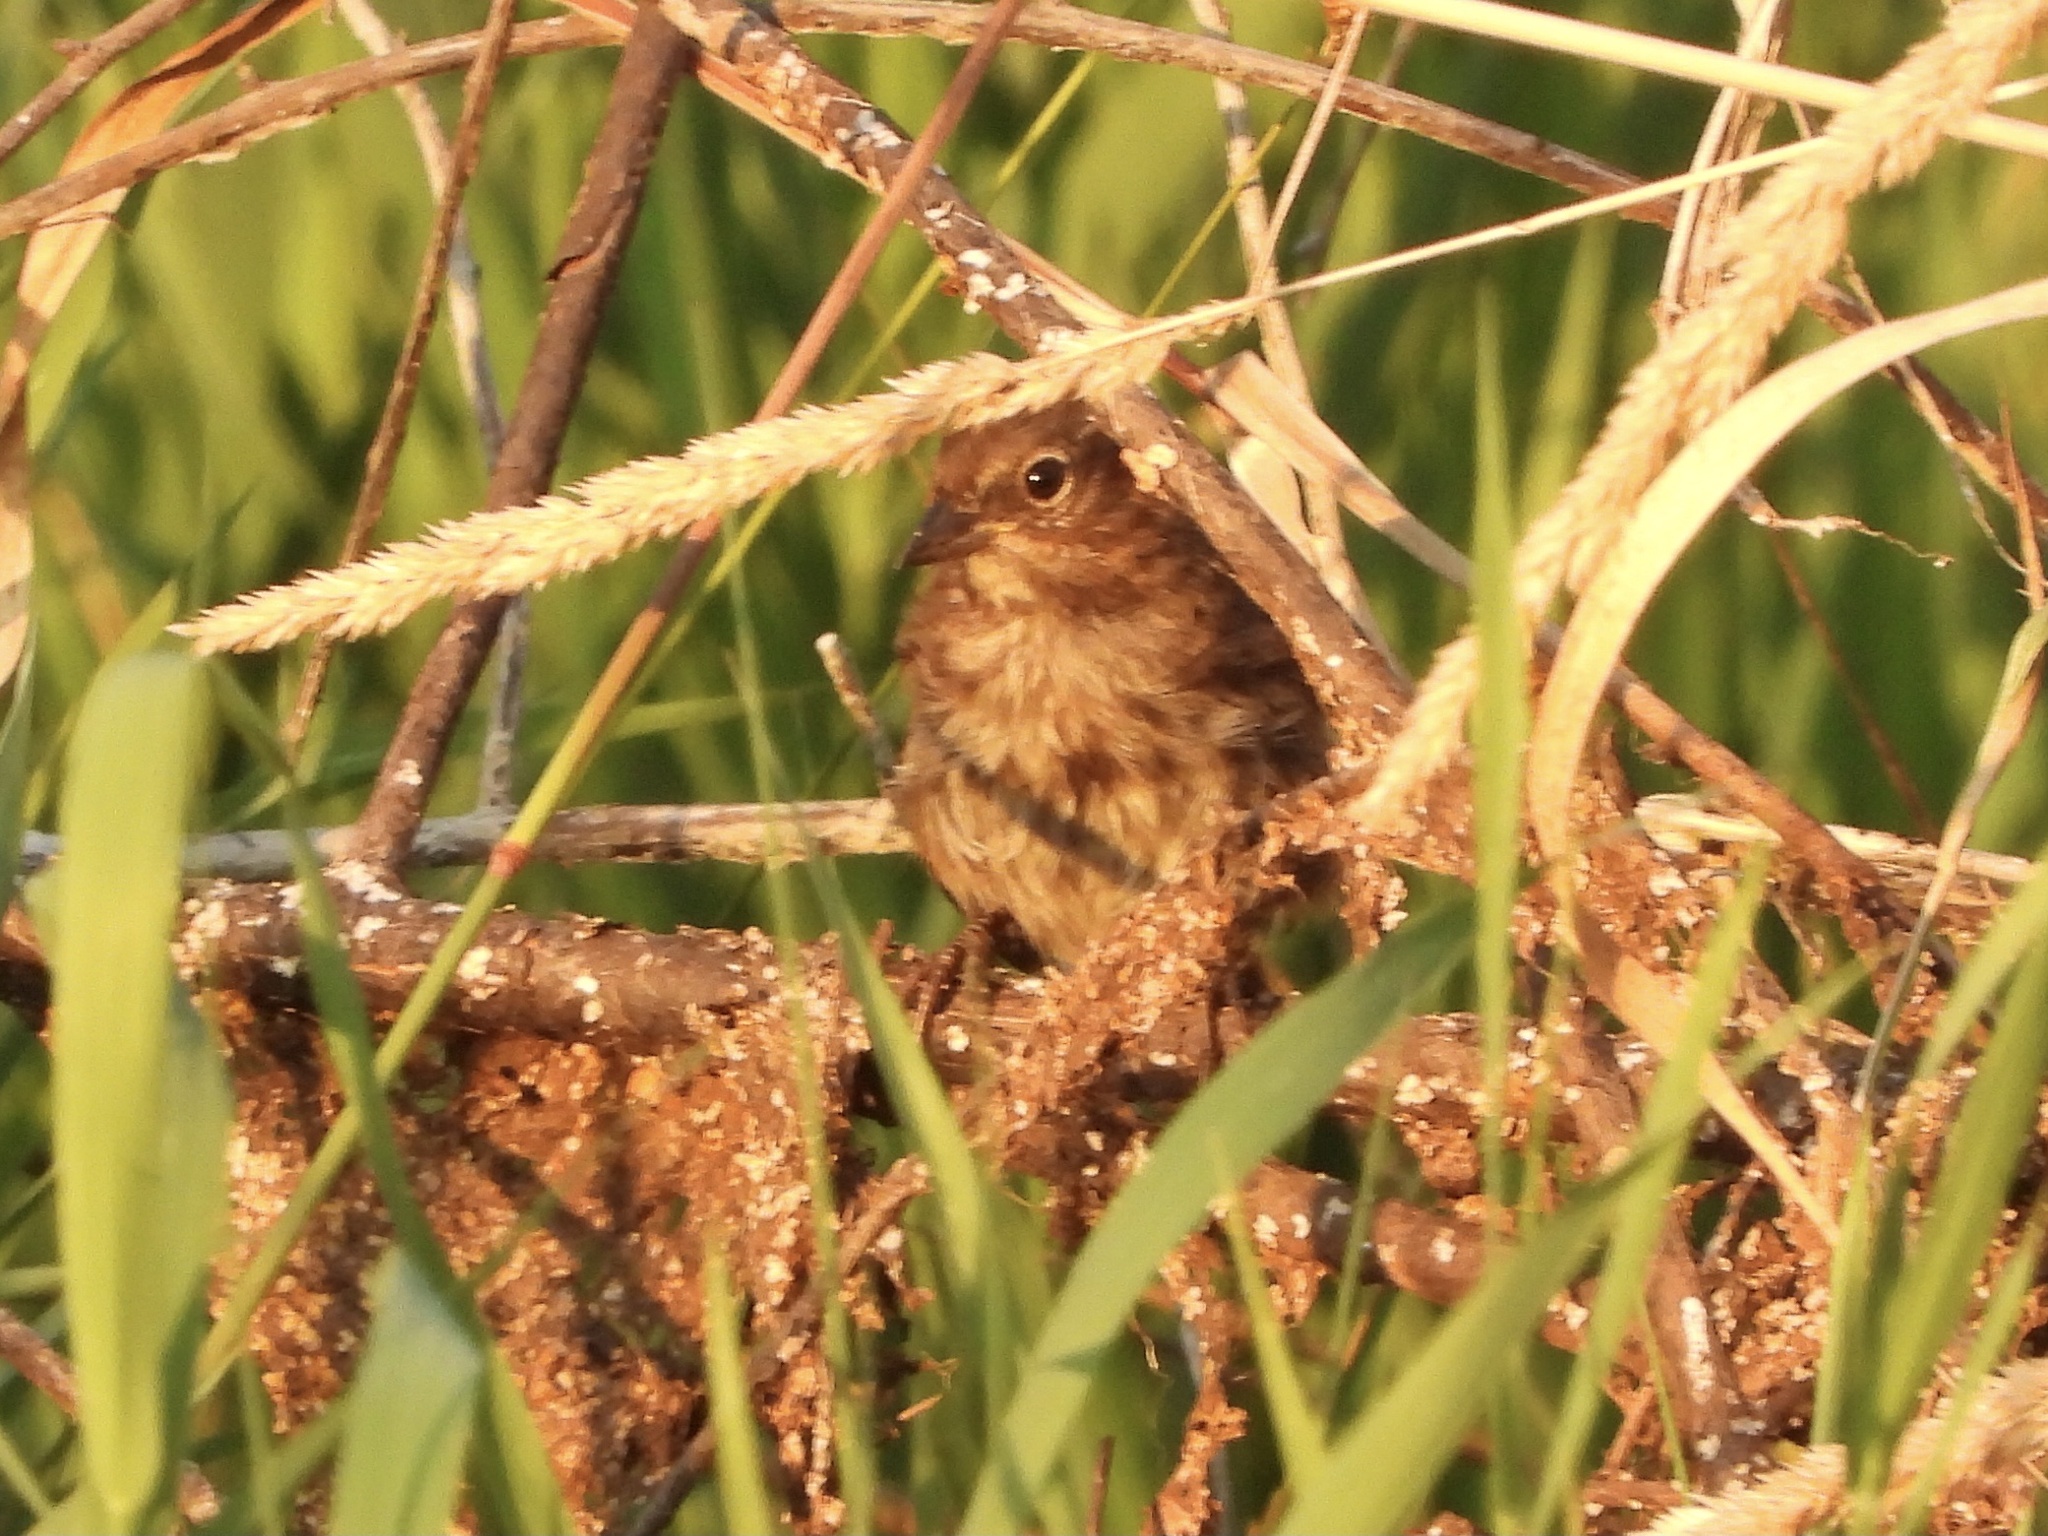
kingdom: Animalia
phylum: Chordata
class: Aves
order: Passeriformes
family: Passerellidae
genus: Melospiza
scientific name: Melospiza melodia
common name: Song sparrow
